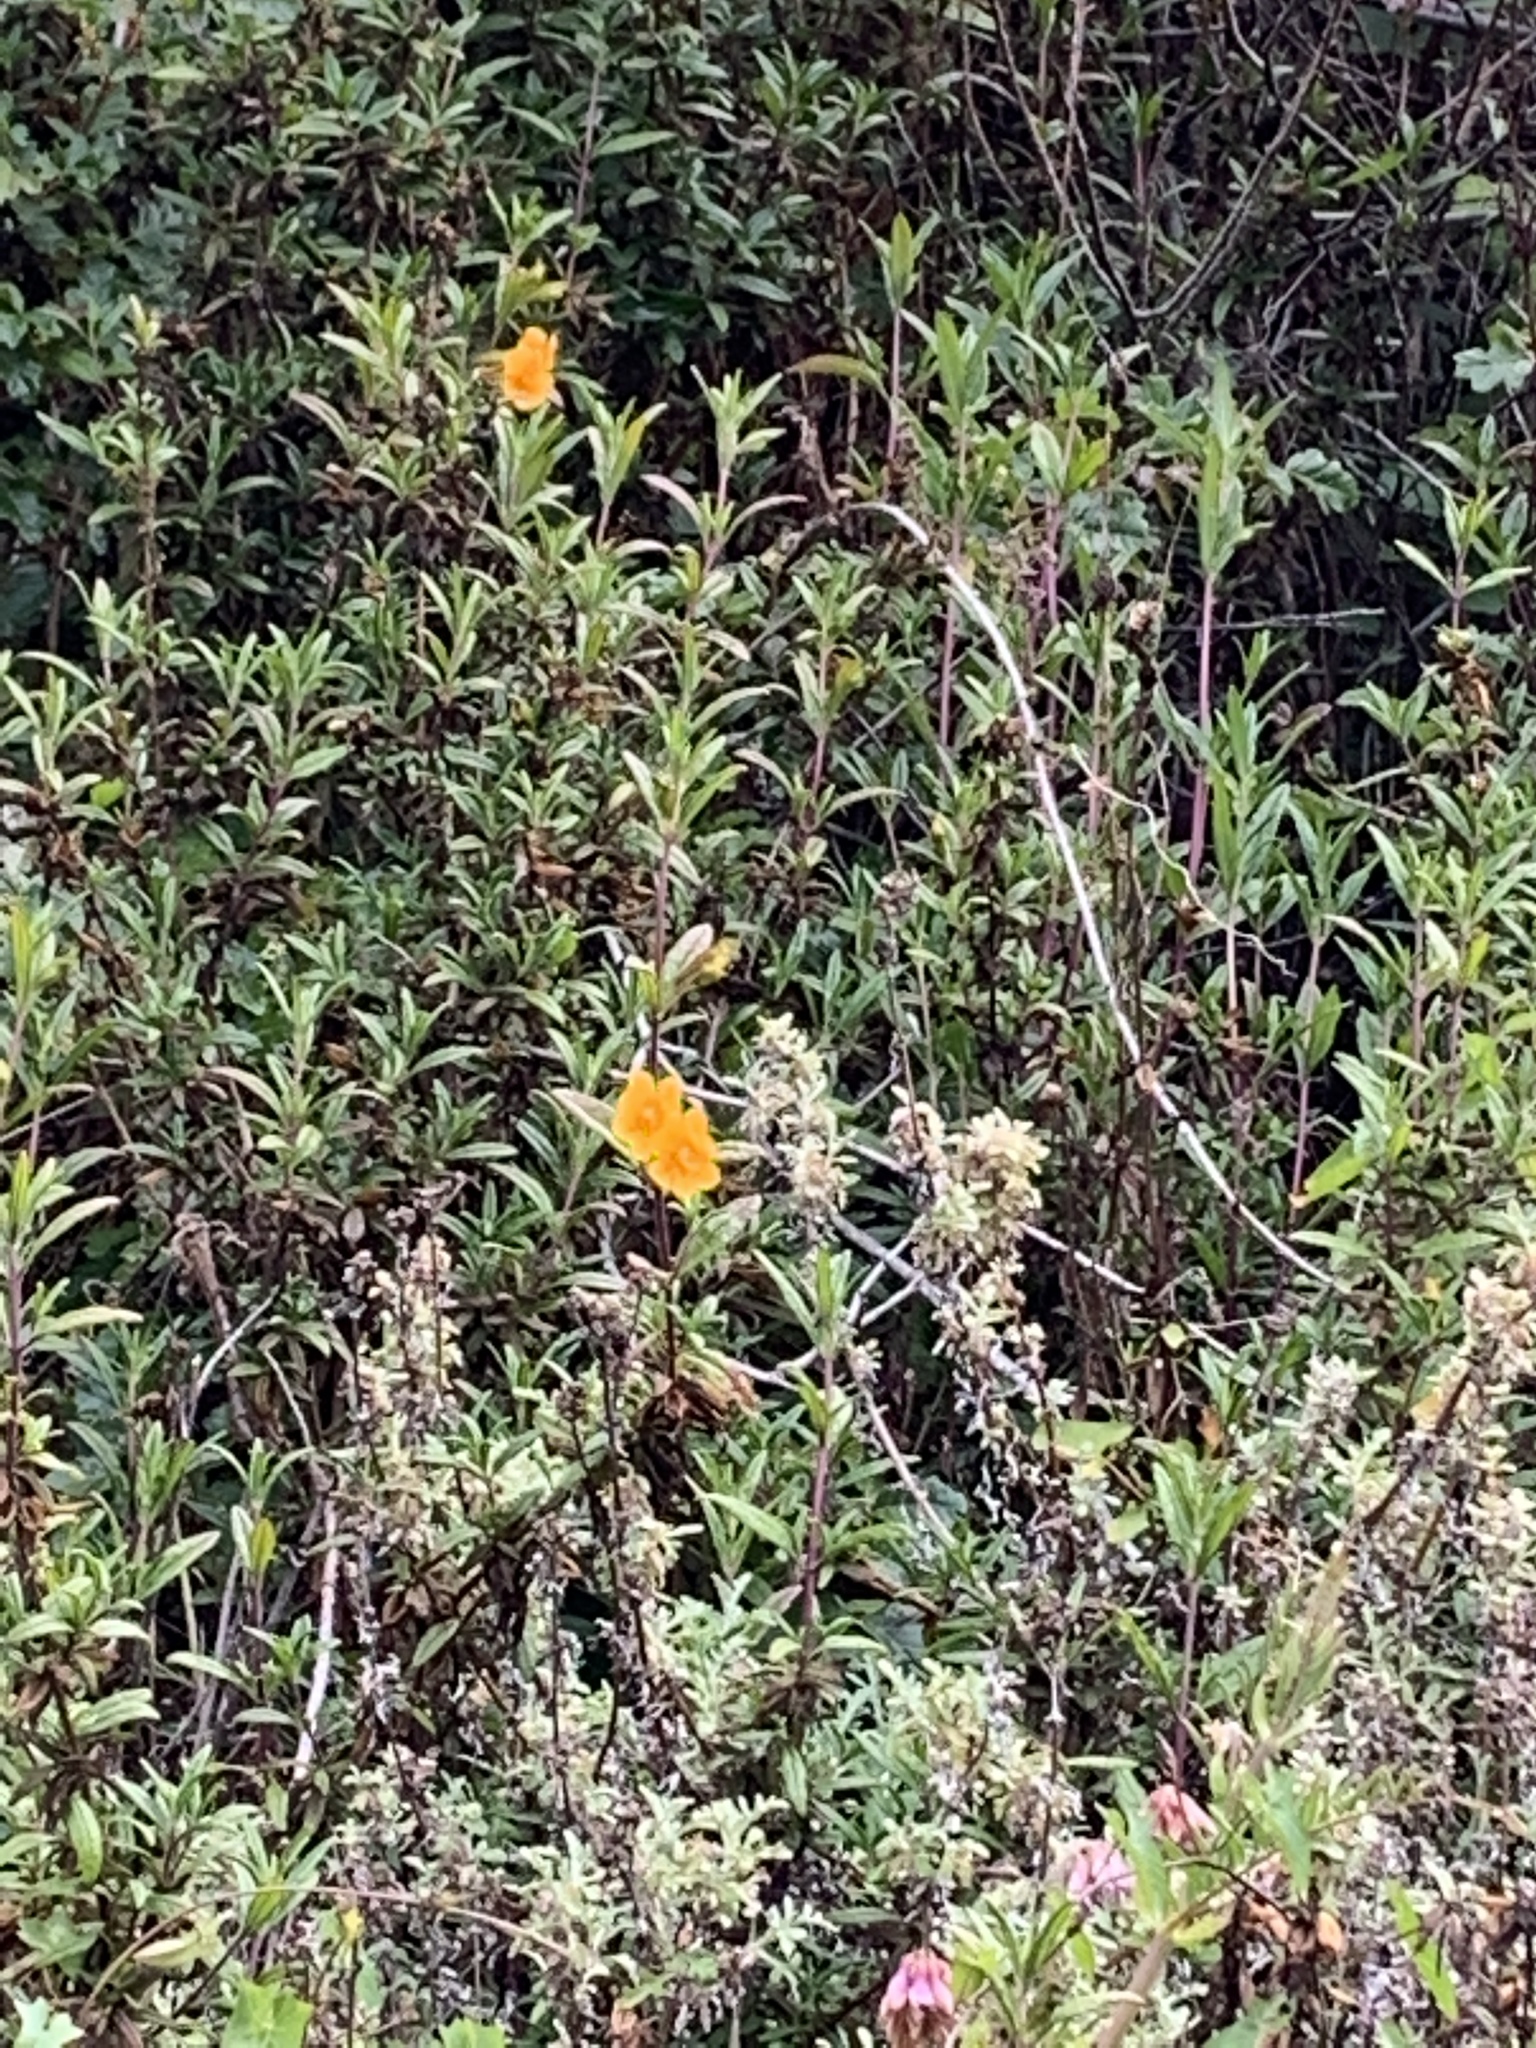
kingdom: Plantae
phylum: Tracheophyta
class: Magnoliopsida
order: Lamiales
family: Phrymaceae
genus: Diplacus
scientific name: Diplacus aurantiacus
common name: Bush monkey-flower
